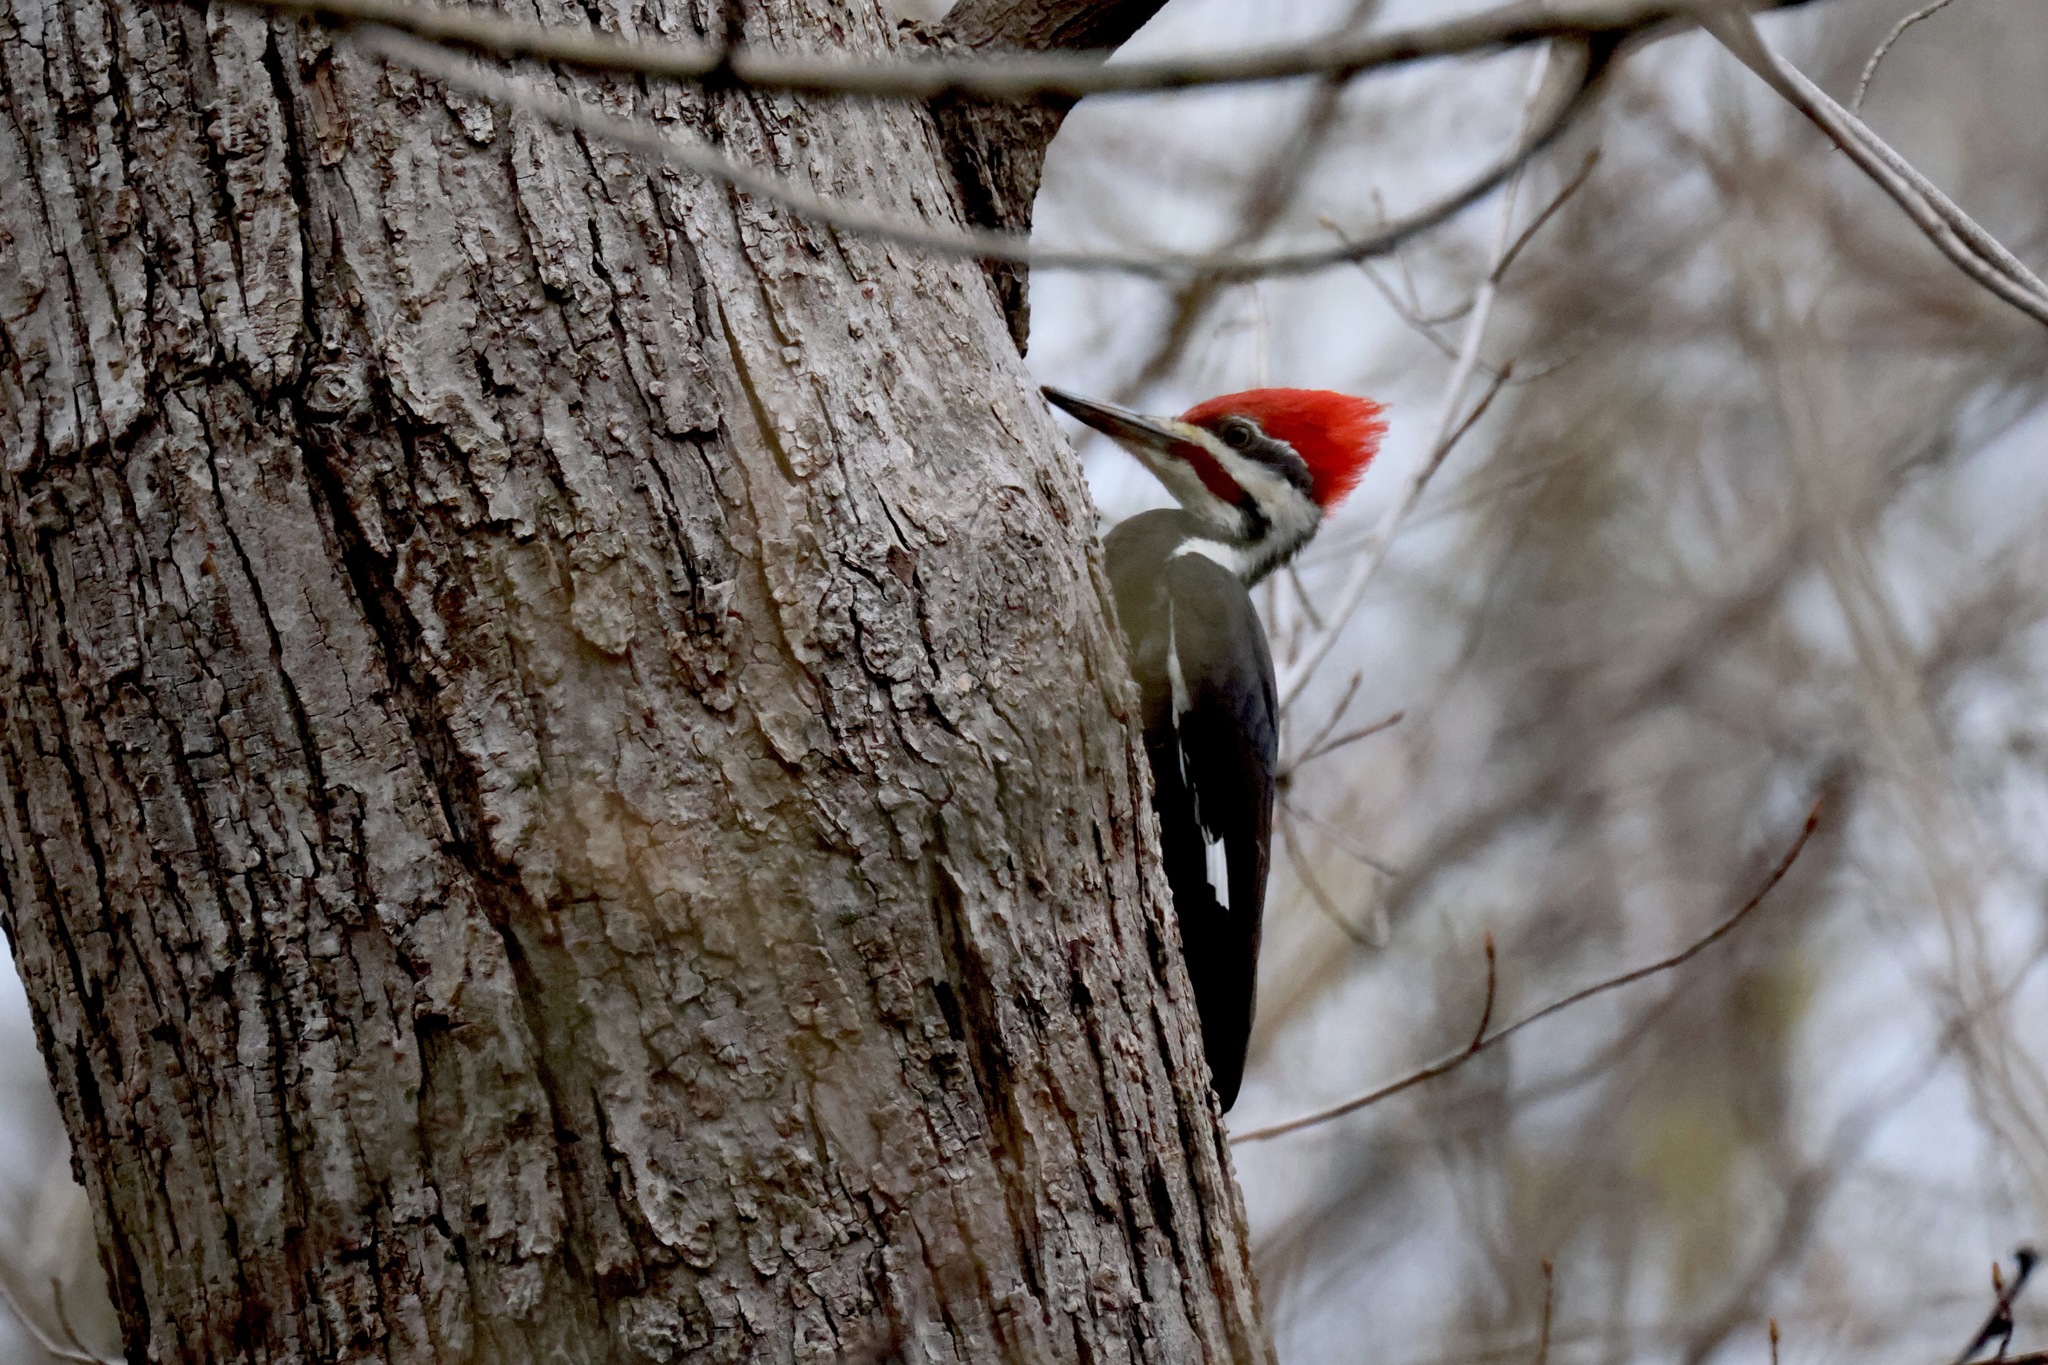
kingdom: Animalia
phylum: Chordata
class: Aves
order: Piciformes
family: Picidae
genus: Dryocopus
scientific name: Dryocopus pileatus
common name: Pileated woodpecker
